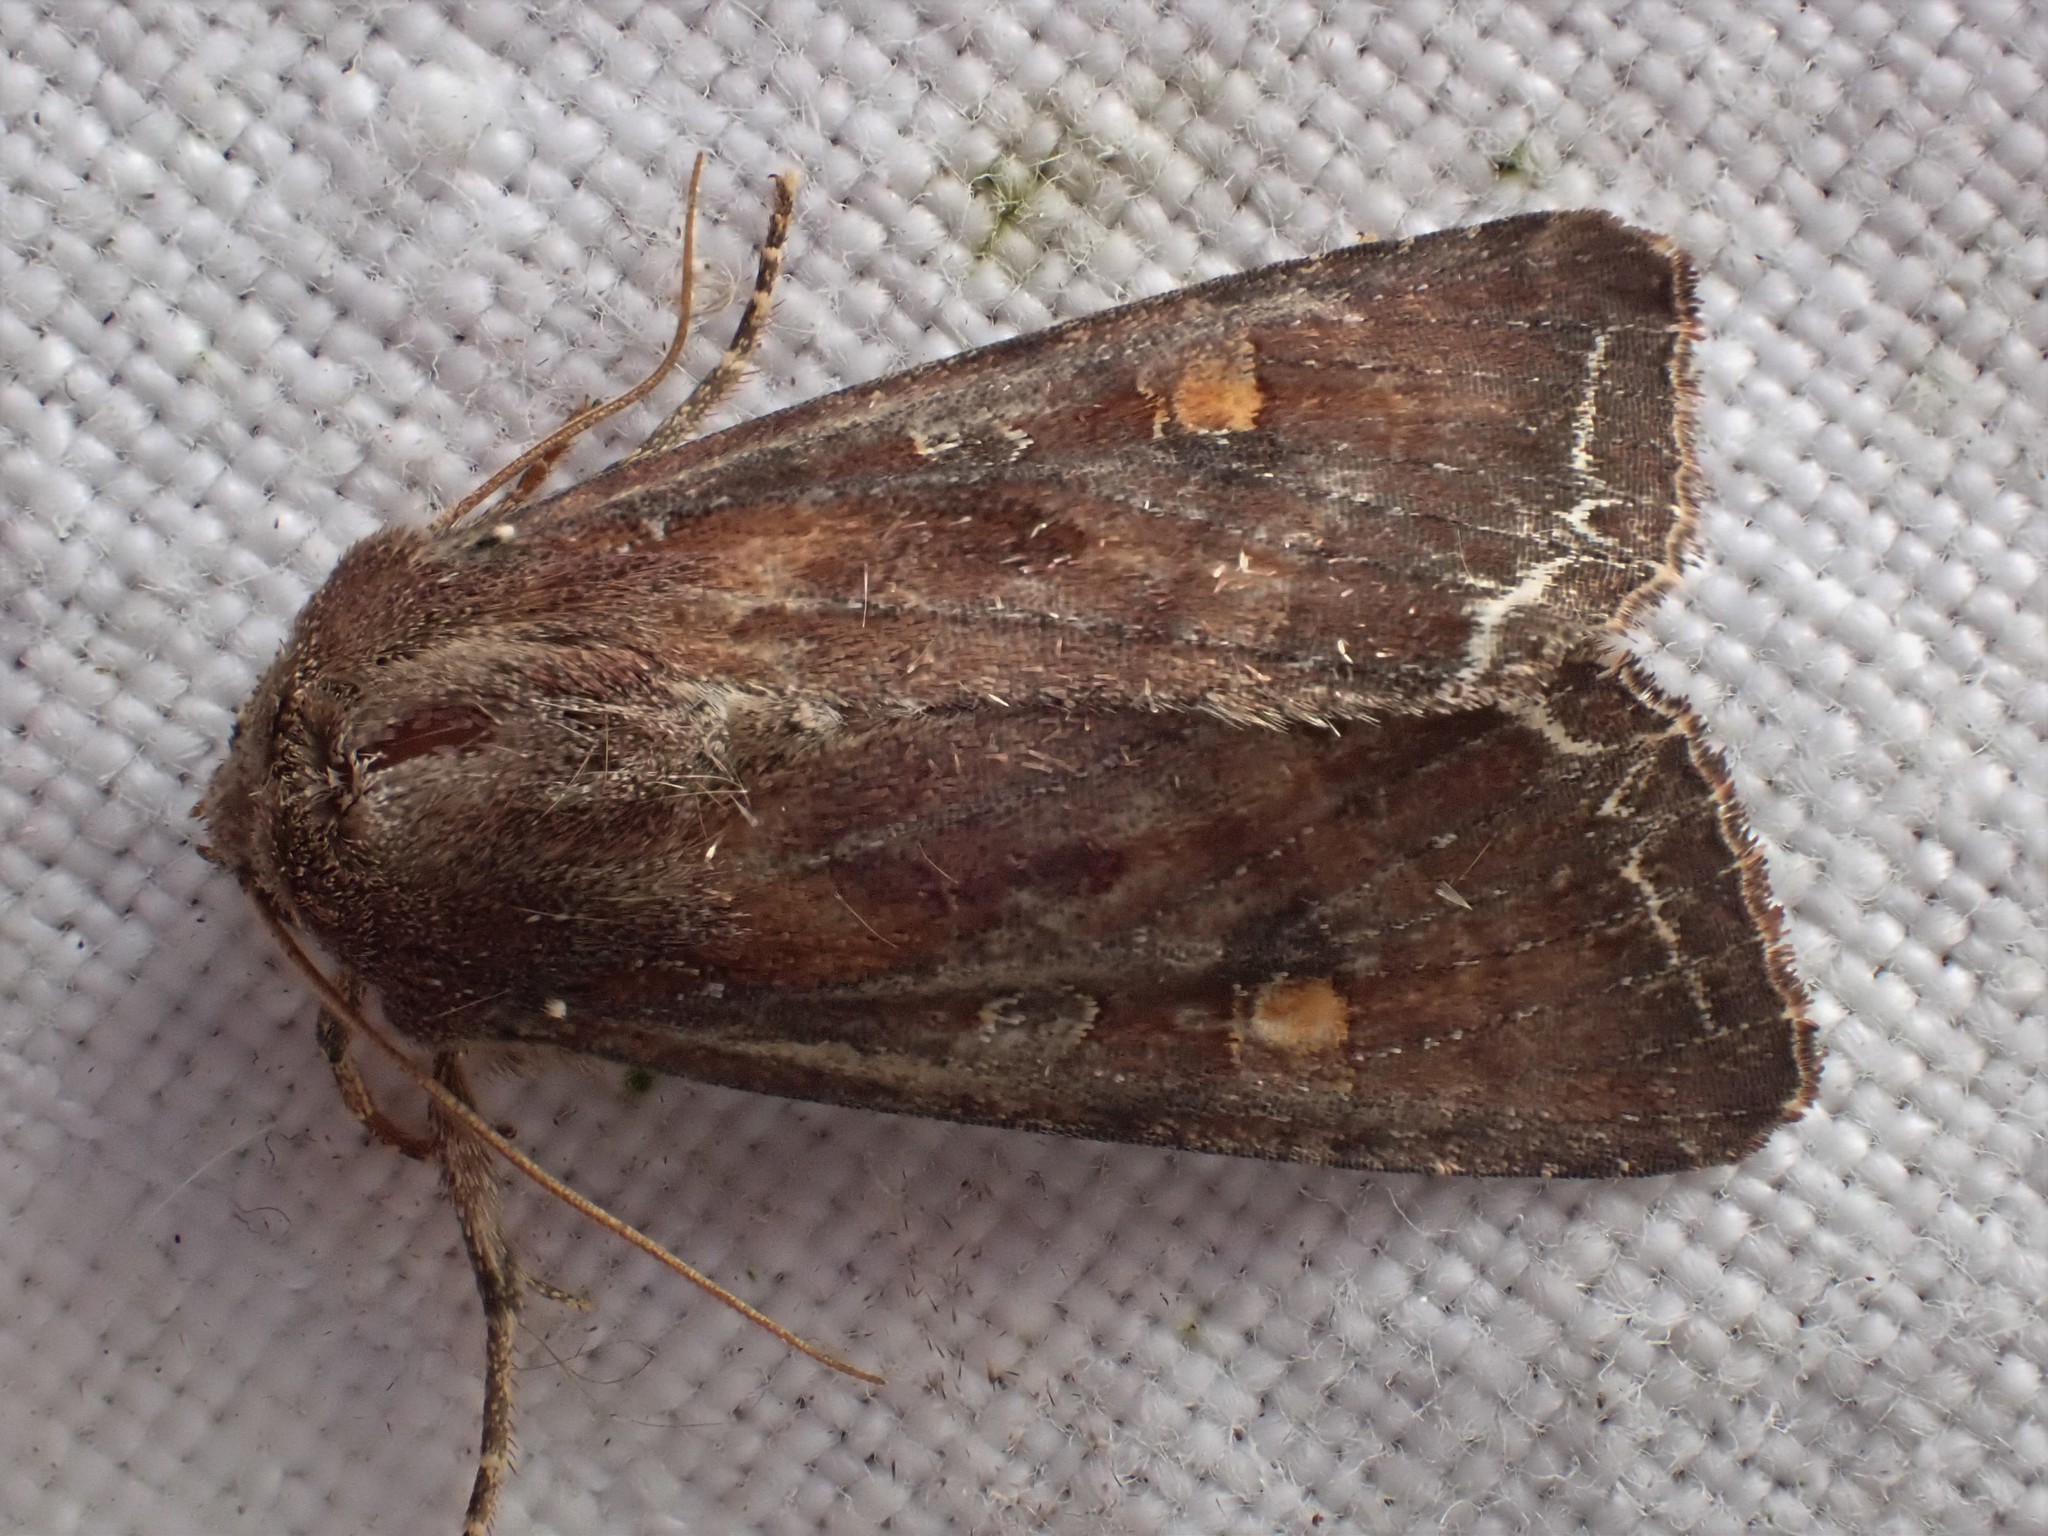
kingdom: Animalia
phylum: Arthropoda
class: Insecta
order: Lepidoptera
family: Noctuidae
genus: Lacanobia
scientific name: Lacanobia oleracea
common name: Bright-line brown-eye
